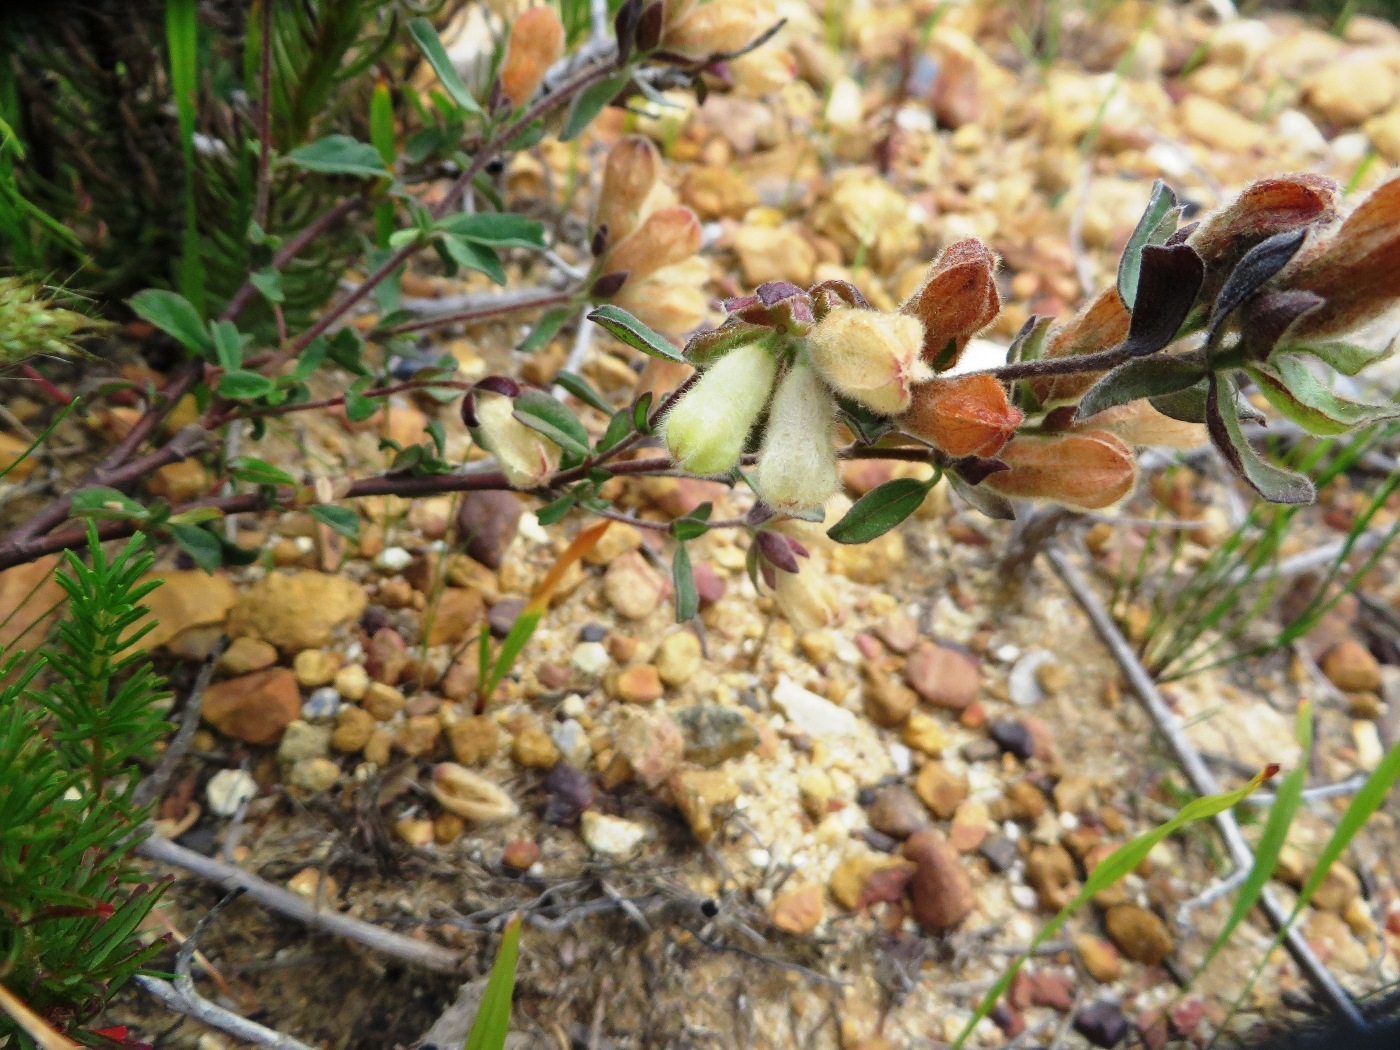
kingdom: Plantae
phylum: Tracheophyta
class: Magnoliopsida
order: Malvales
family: Malvaceae
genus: Hermannia
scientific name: Hermannia hyssopifolia
